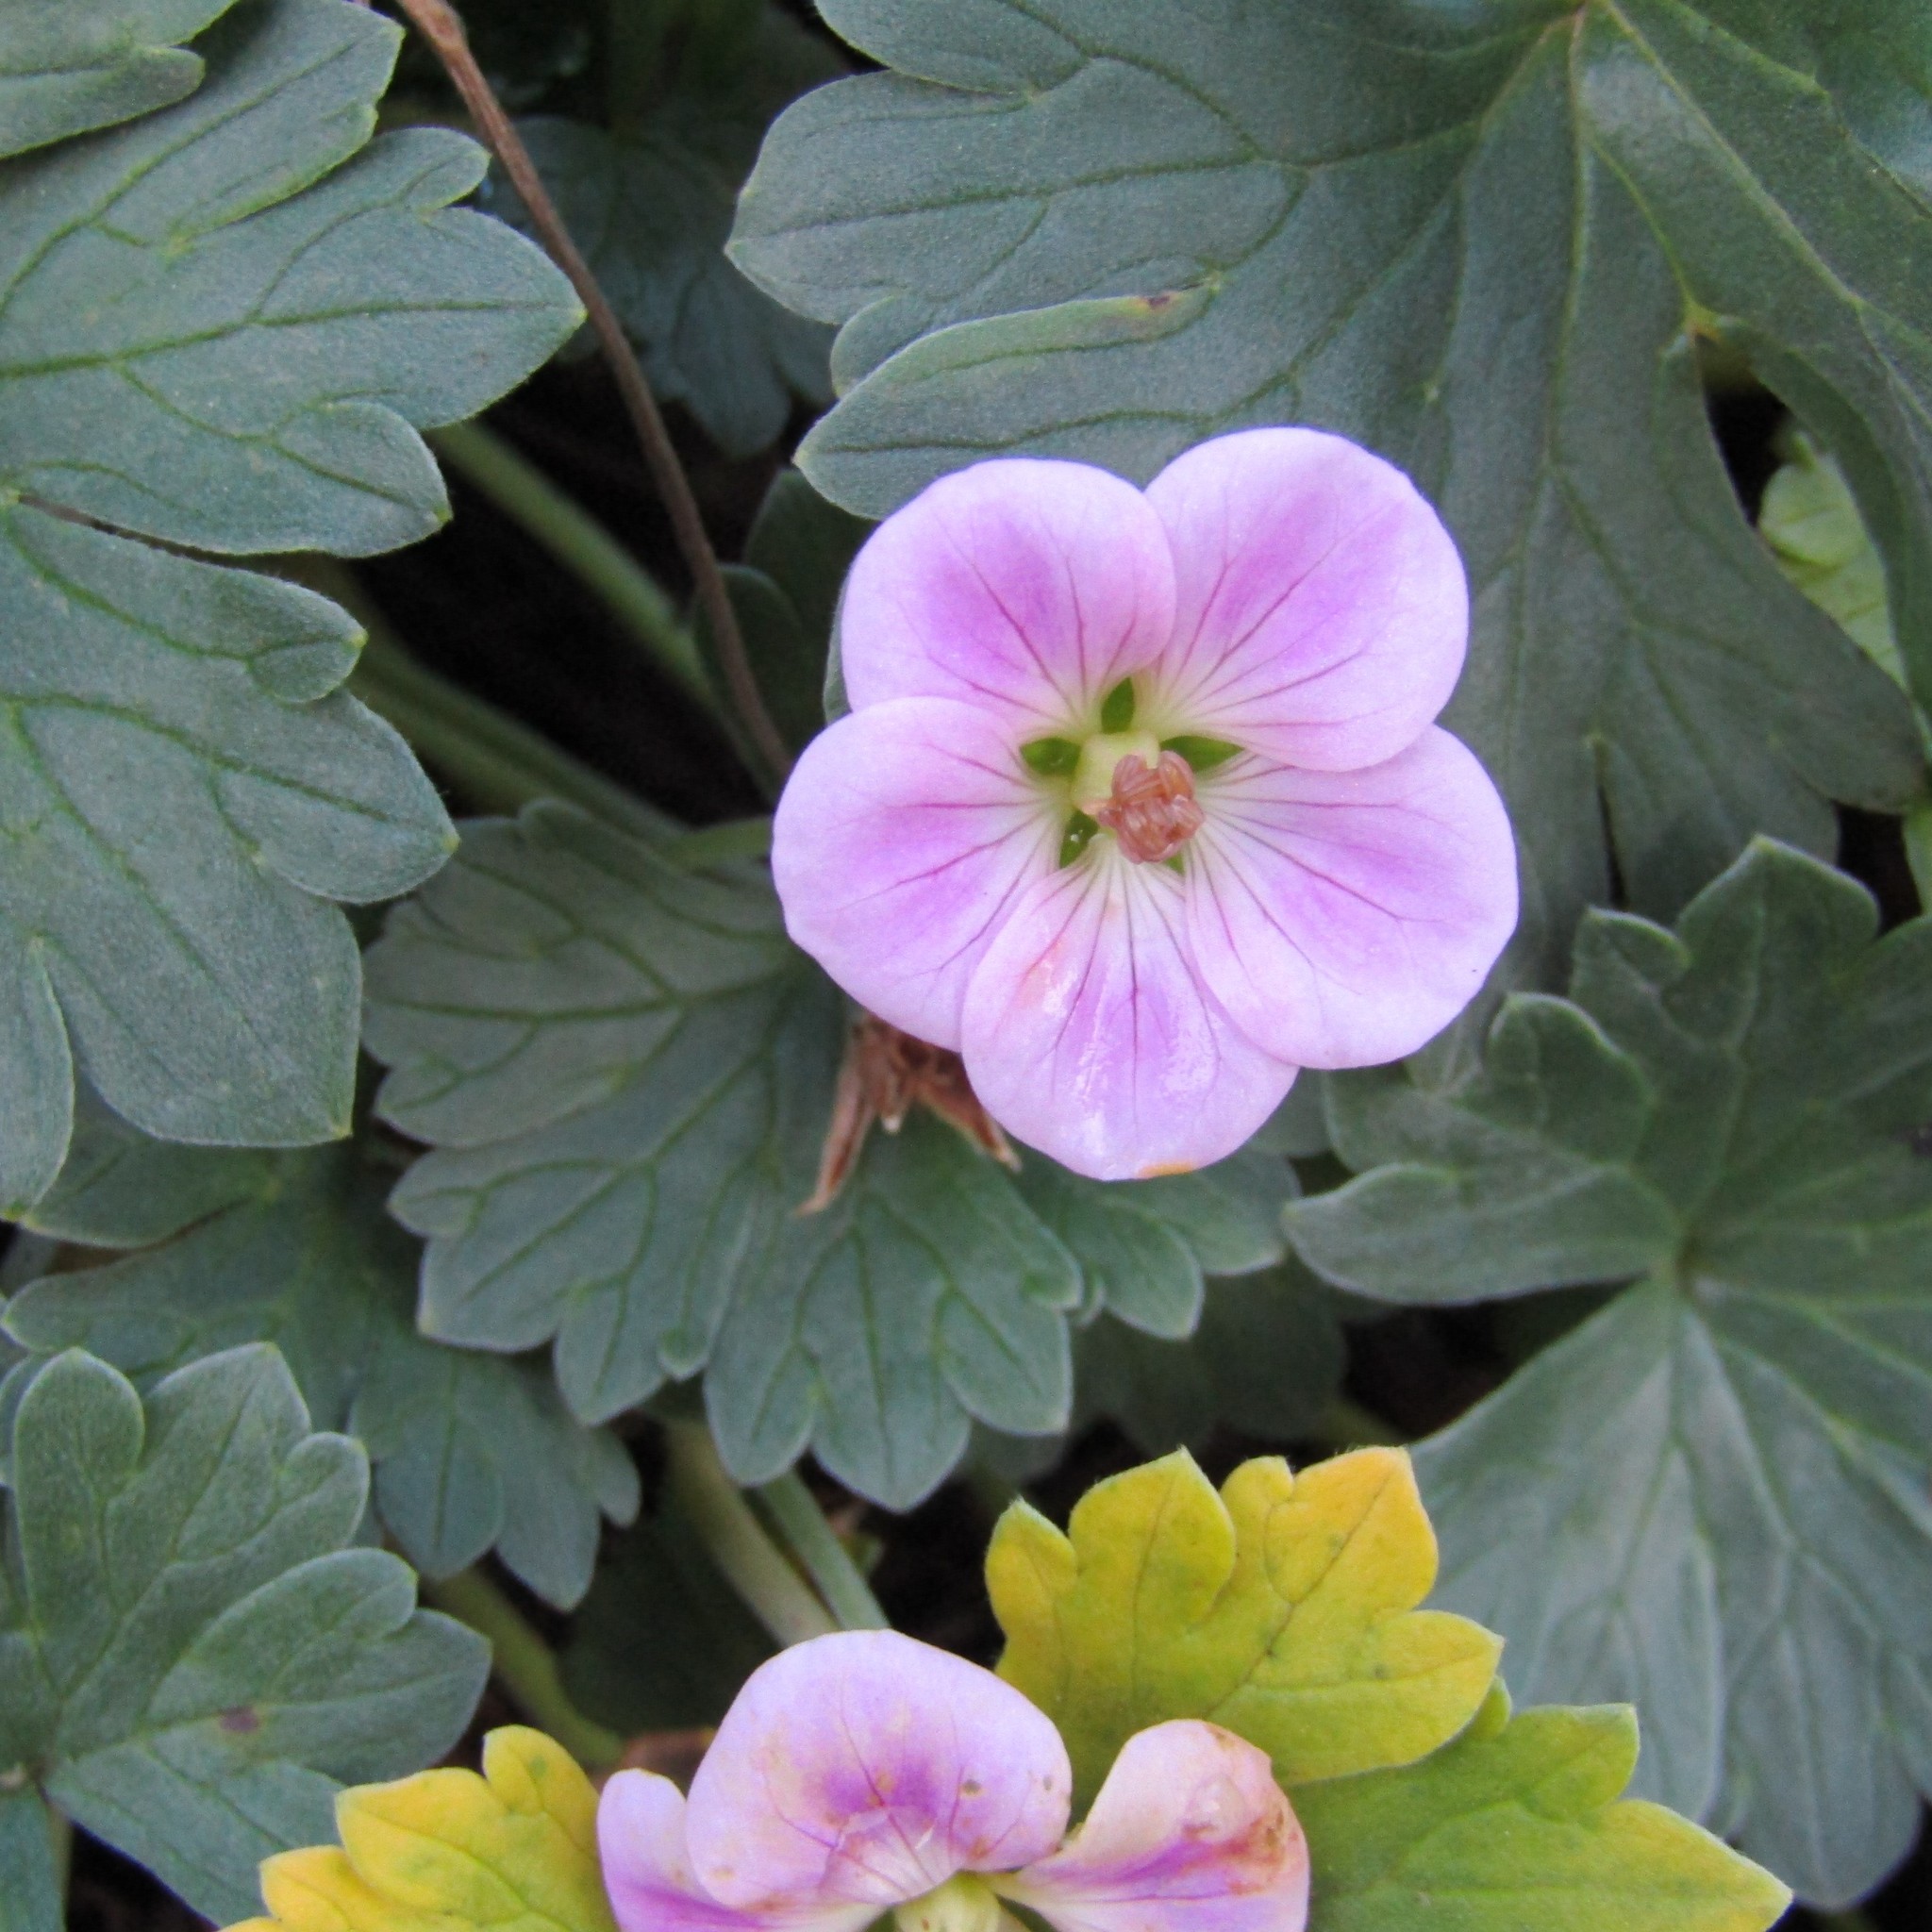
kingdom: Plantae
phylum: Tracheophyta
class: Magnoliopsida
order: Geraniales
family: Geraniaceae
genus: Geranium
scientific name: Geranium traversii
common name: Cranesbill
